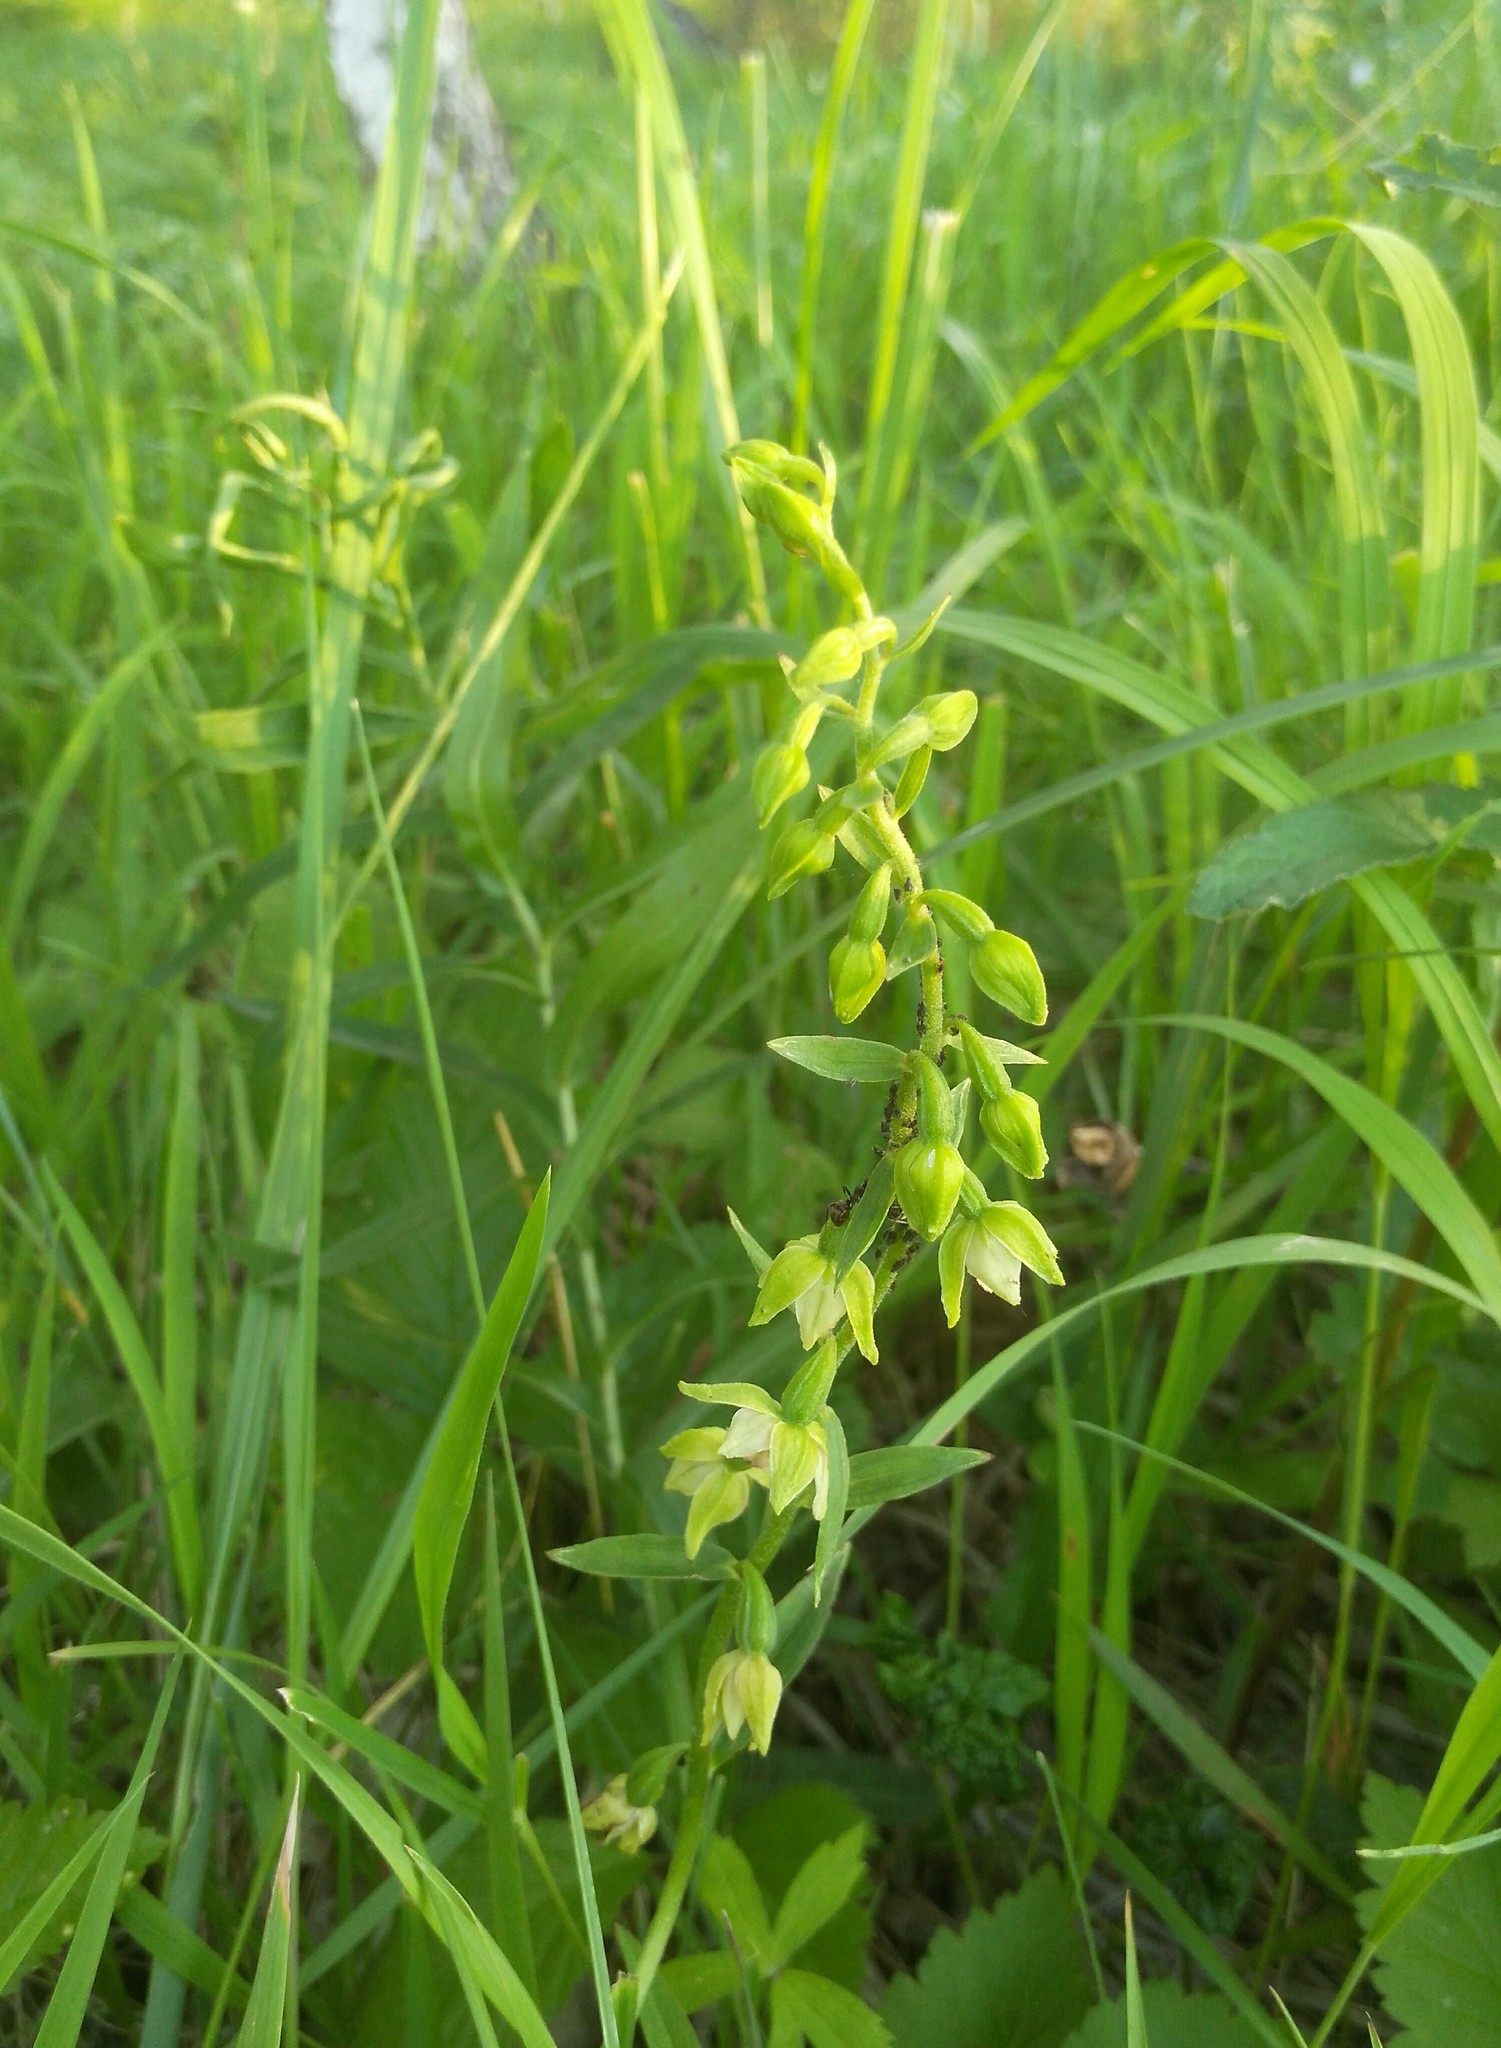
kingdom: Plantae
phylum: Tracheophyta
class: Liliopsida
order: Asparagales
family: Orchidaceae
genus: Epipactis
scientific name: Epipactis helleborine
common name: Broad-leaved helleborine
